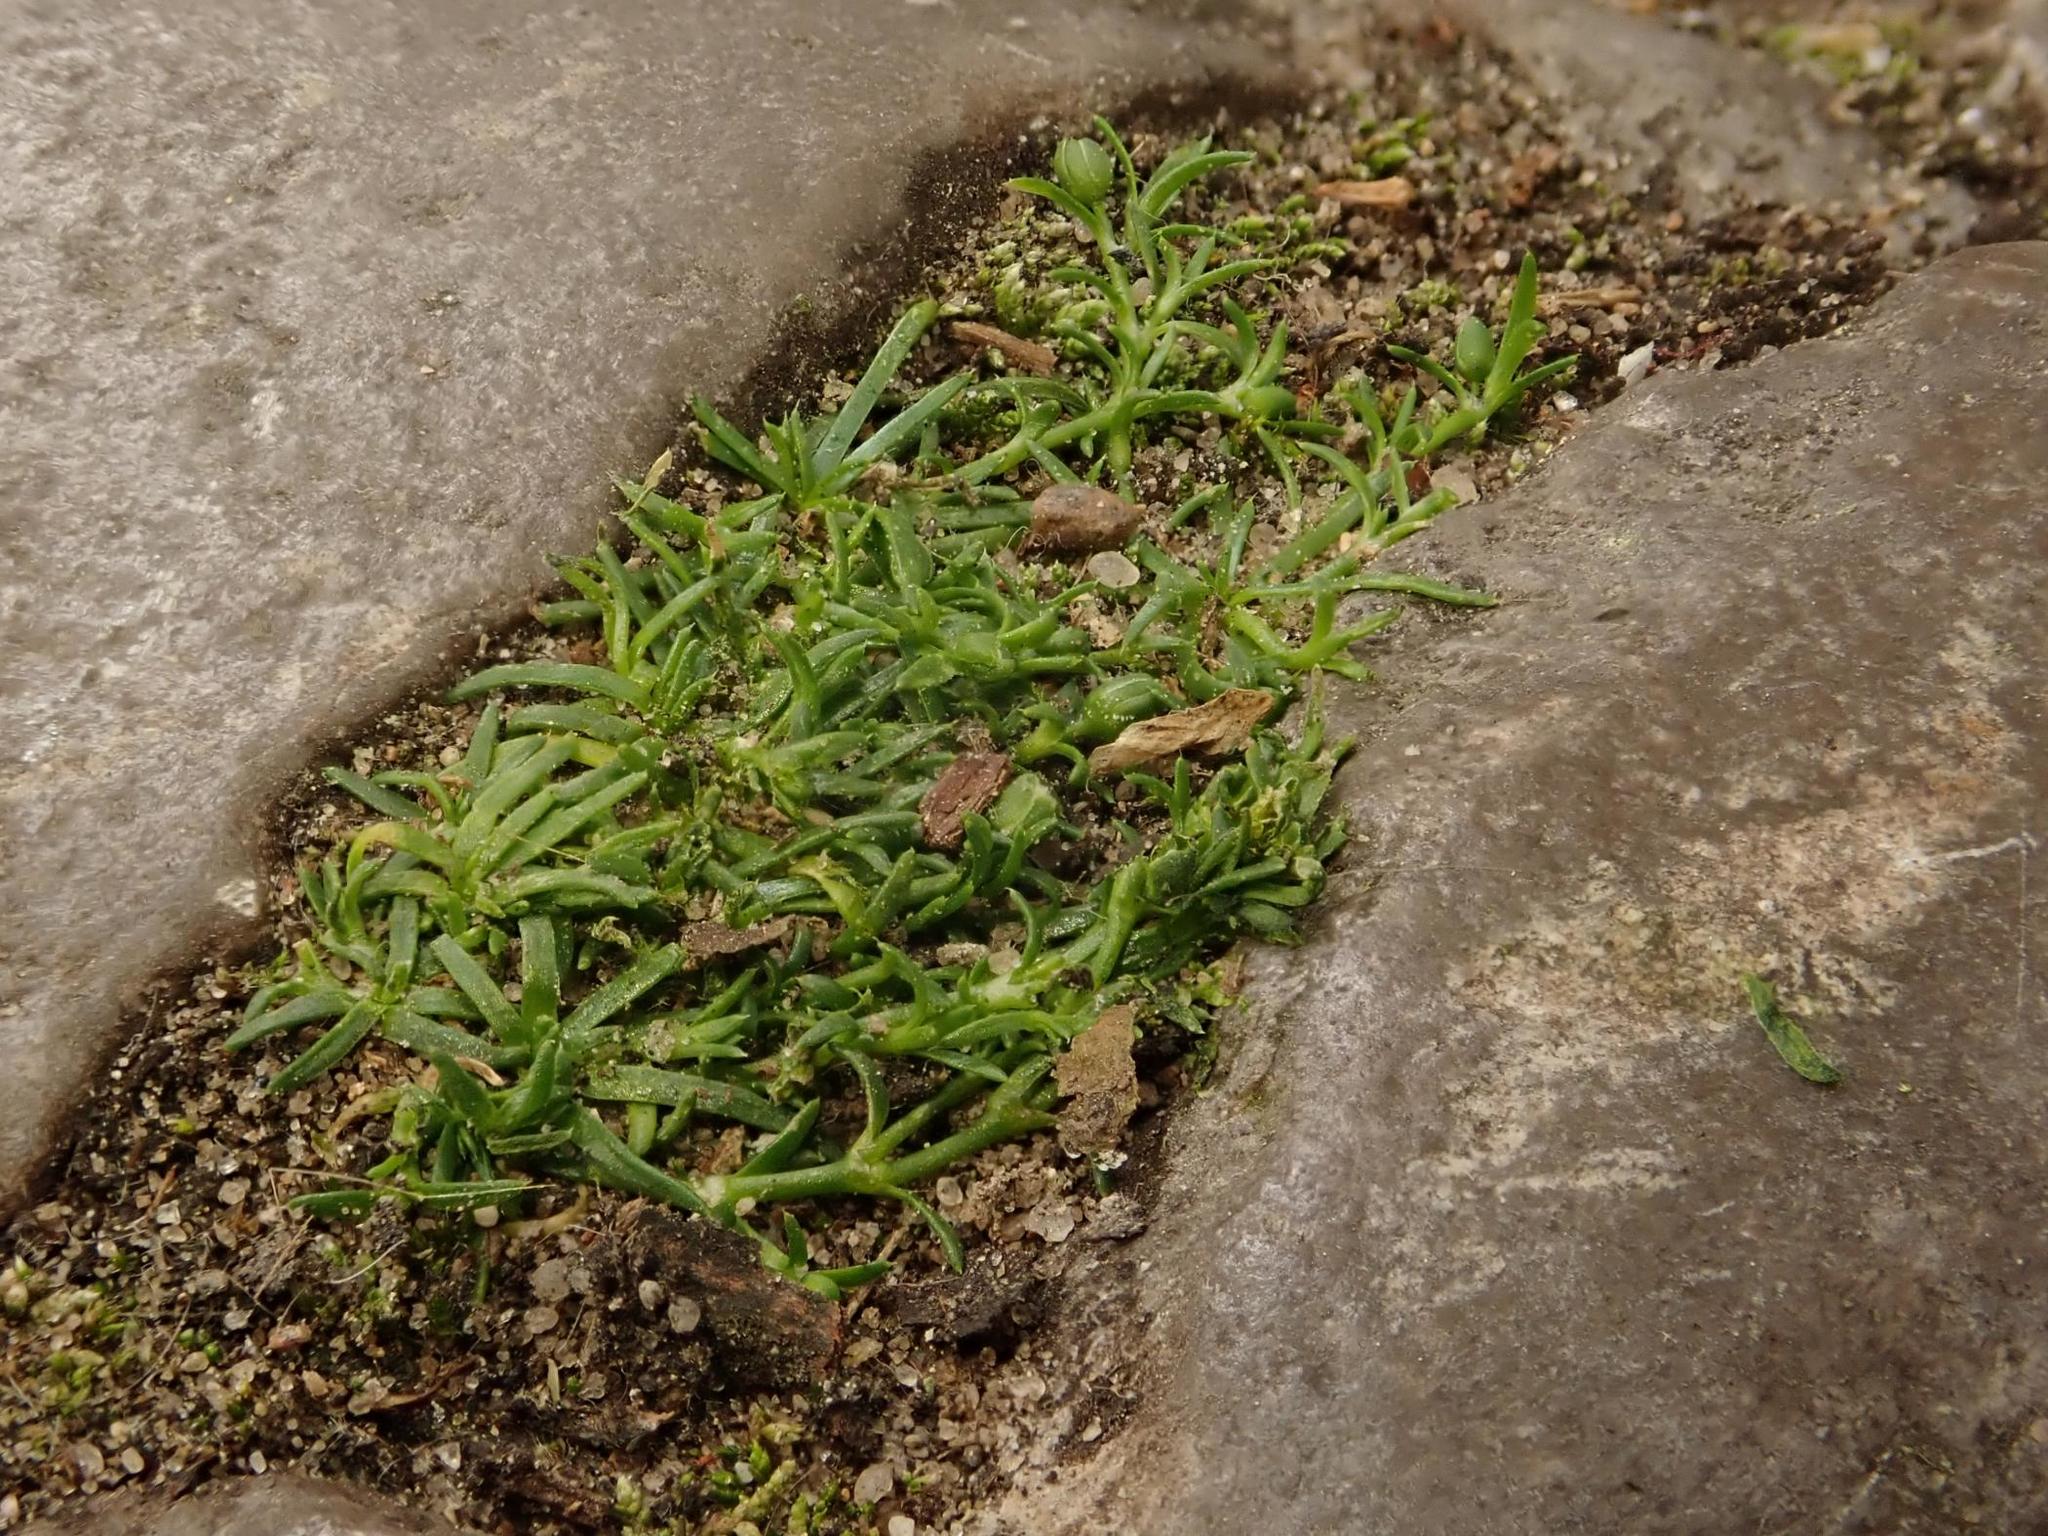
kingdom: Plantae
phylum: Tracheophyta
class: Magnoliopsida
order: Caryophyllales
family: Caryophyllaceae
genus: Sagina
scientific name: Sagina procumbens
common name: Procumbent pearlwort
